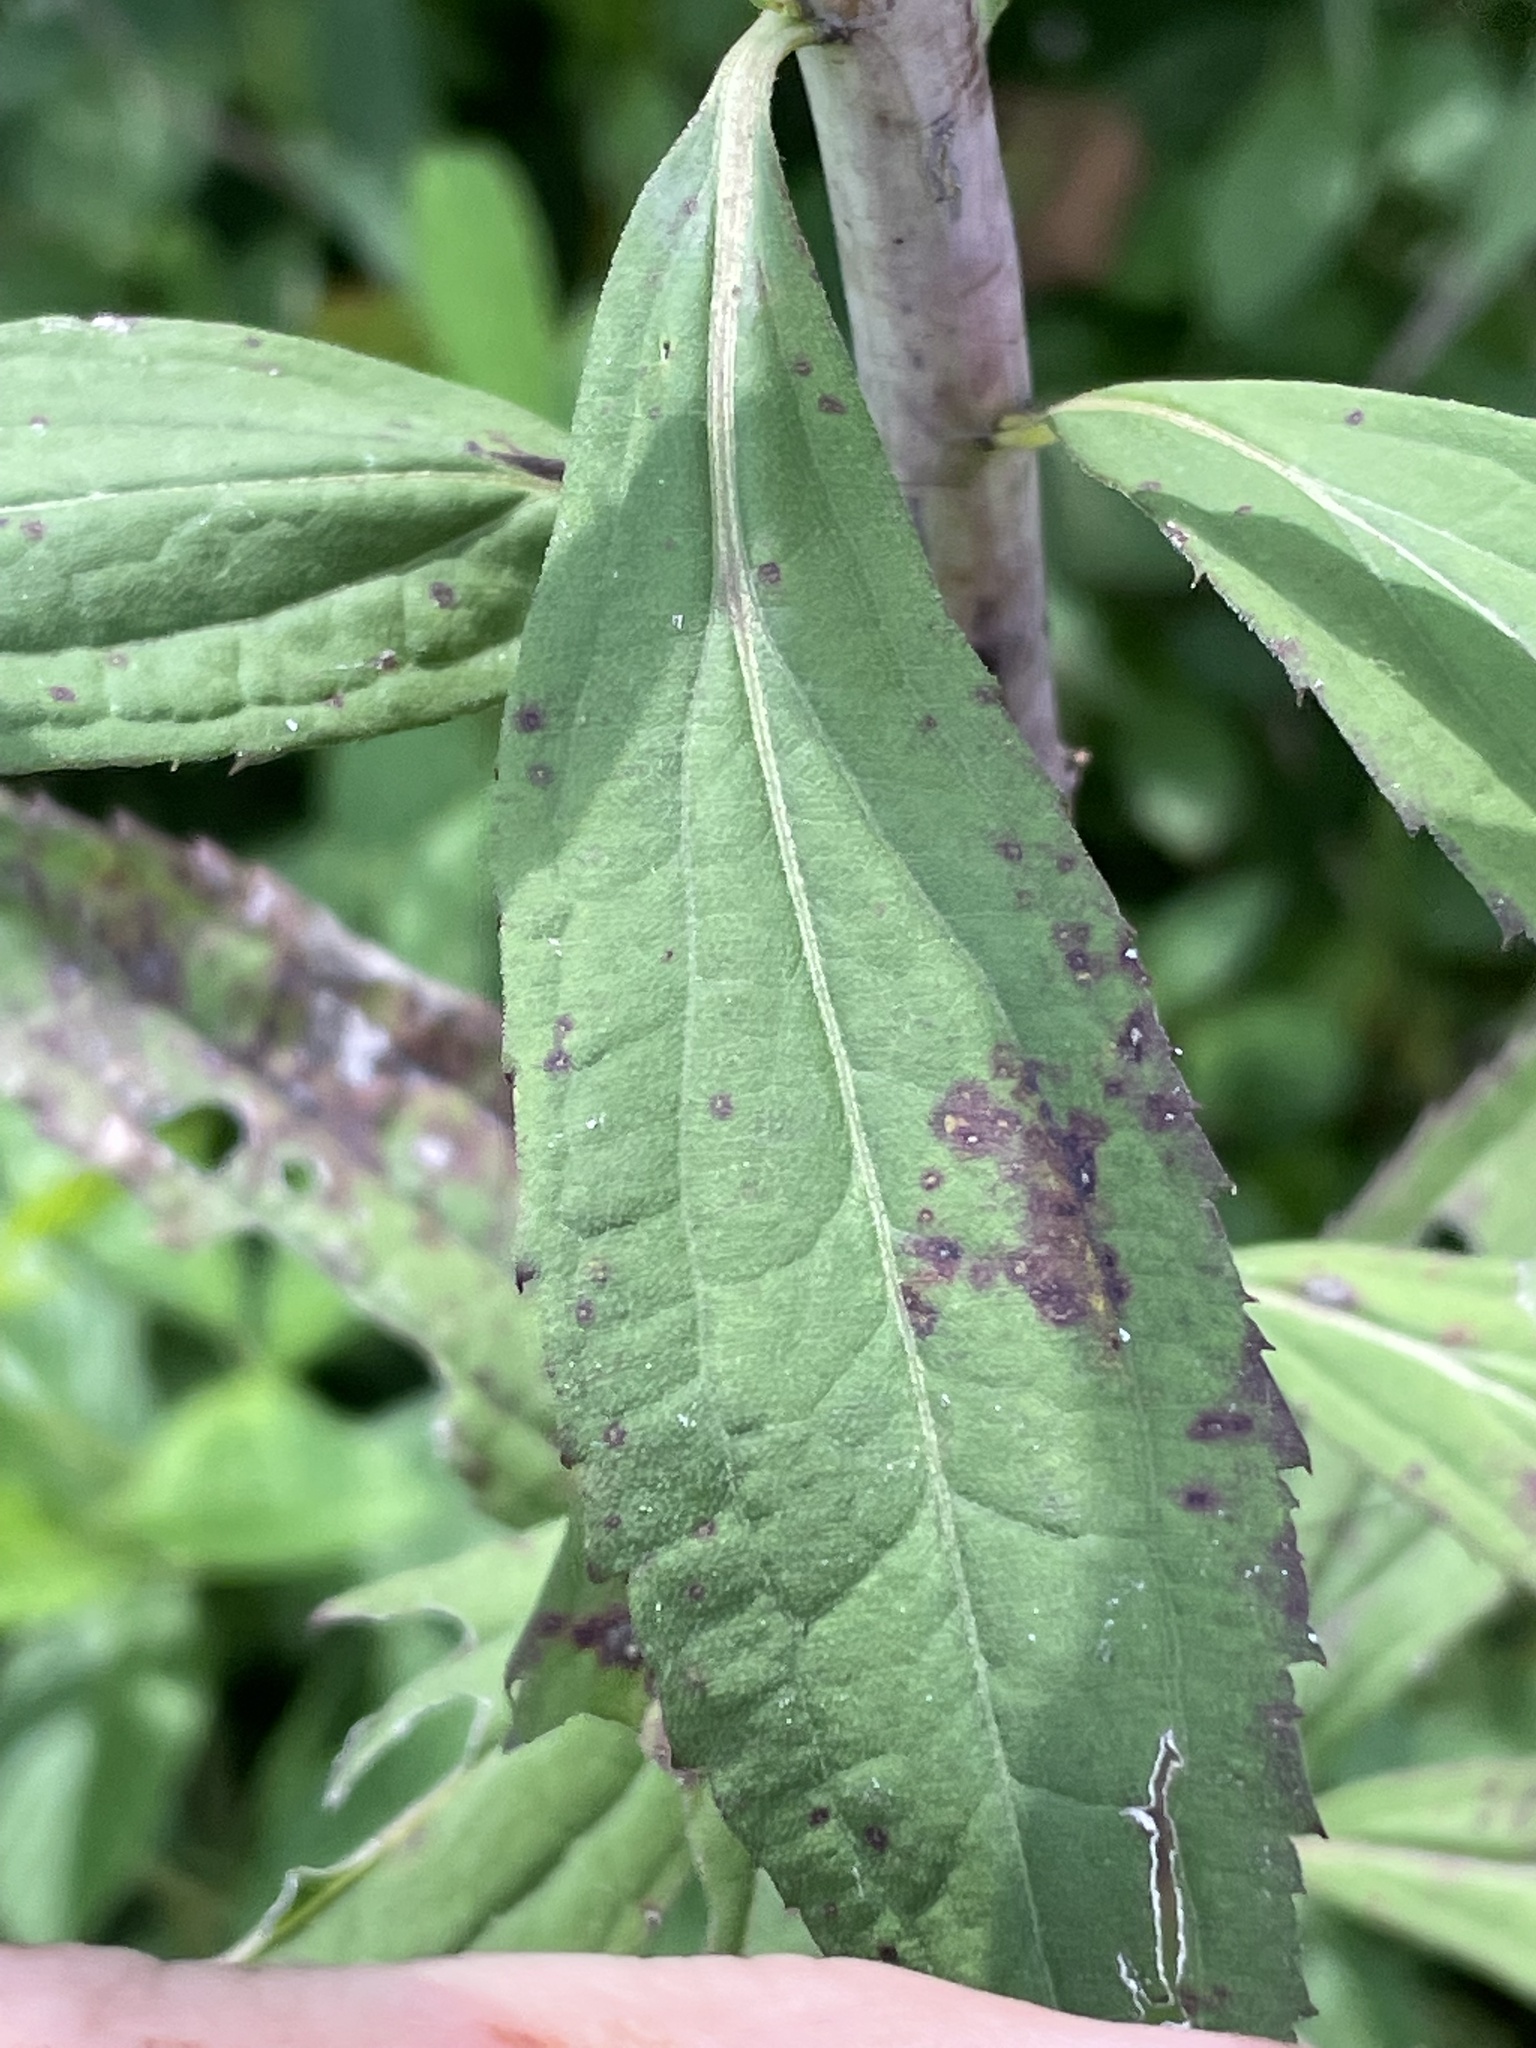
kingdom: Plantae
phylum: Tracheophyta
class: Magnoliopsida
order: Asterales
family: Asteraceae
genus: Solidago
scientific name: Solidago gigantea
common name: Giant goldenrod
